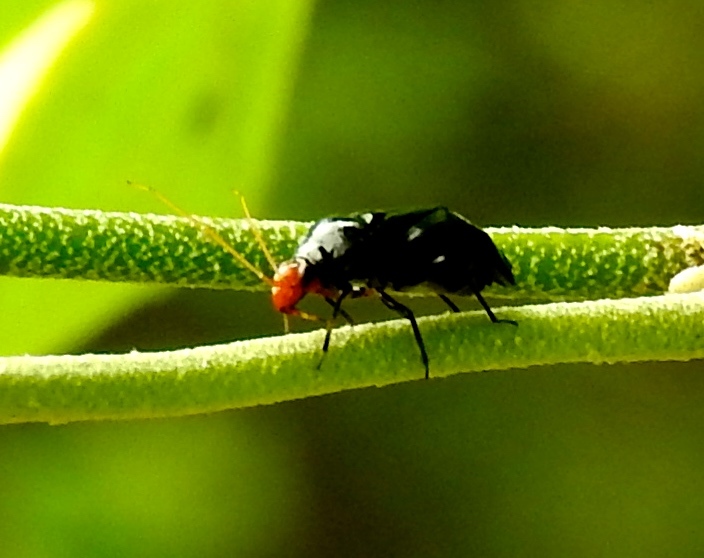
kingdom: Animalia
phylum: Arthropoda
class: Insecta
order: Hemiptera
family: Miridae
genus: Jornandinus
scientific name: Jornandinus grandis
